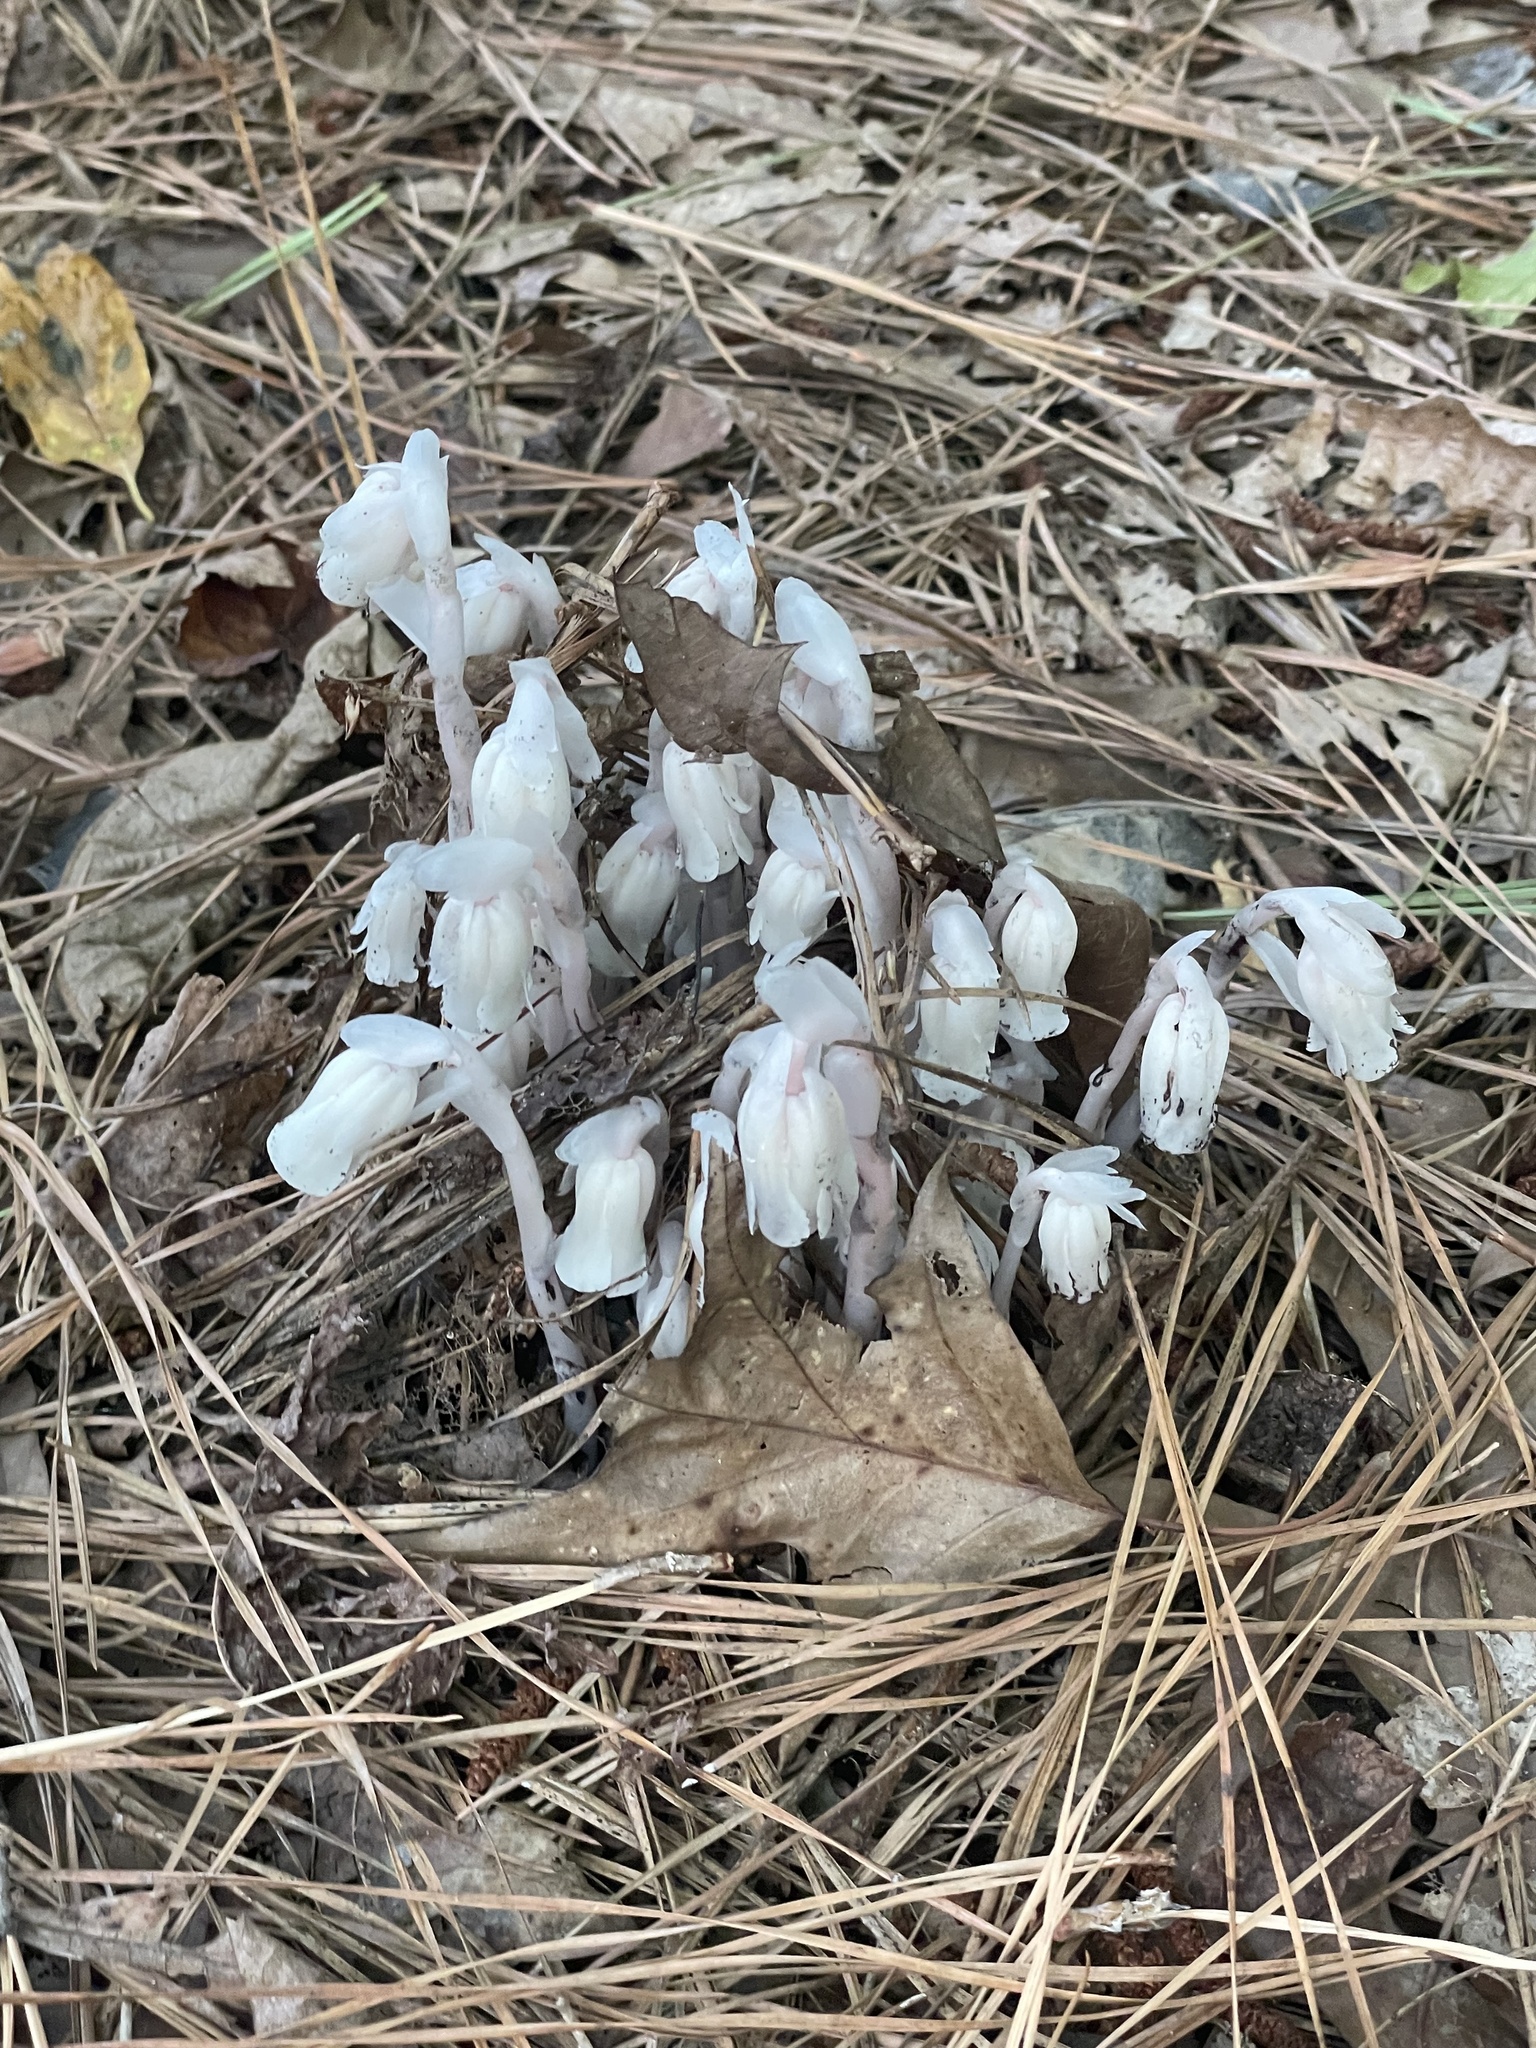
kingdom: Plantae
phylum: Tracheophyta
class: Magnoliopsida
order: Ericales
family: Ericaceae
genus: Monotropa
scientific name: Monotropa uniflora
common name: Convulsion root
